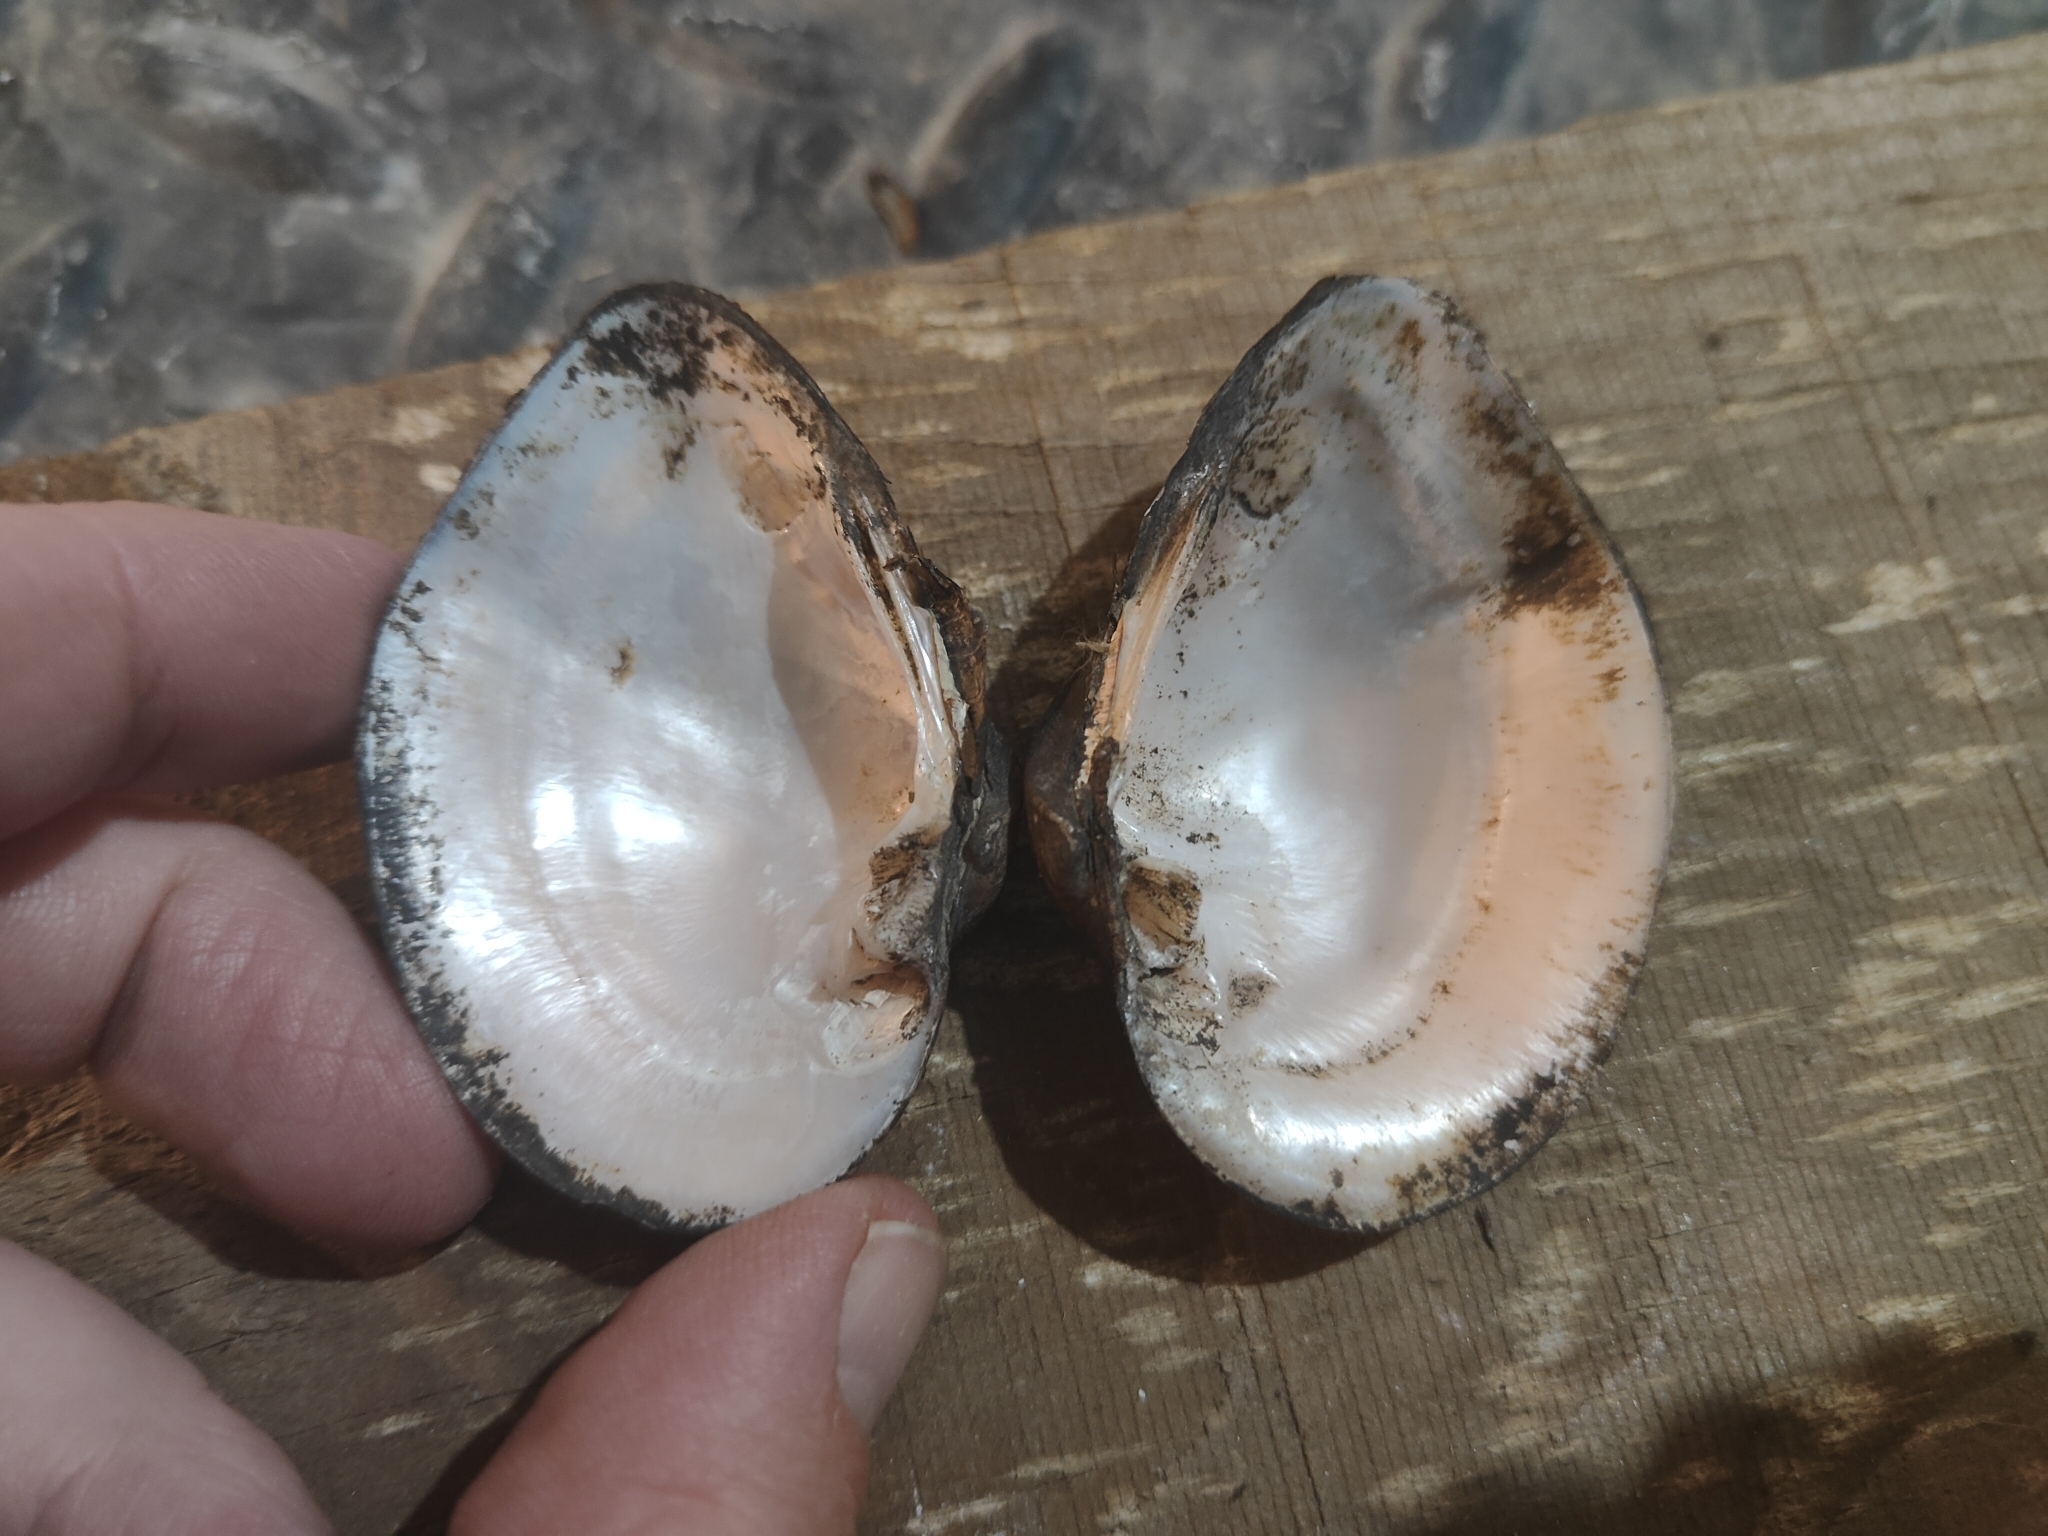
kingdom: Animalia
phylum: Mollusca
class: Bivalvia
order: Unionida
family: Unionidae
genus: Truncilla
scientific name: Truncilla truncata
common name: Deertoe
